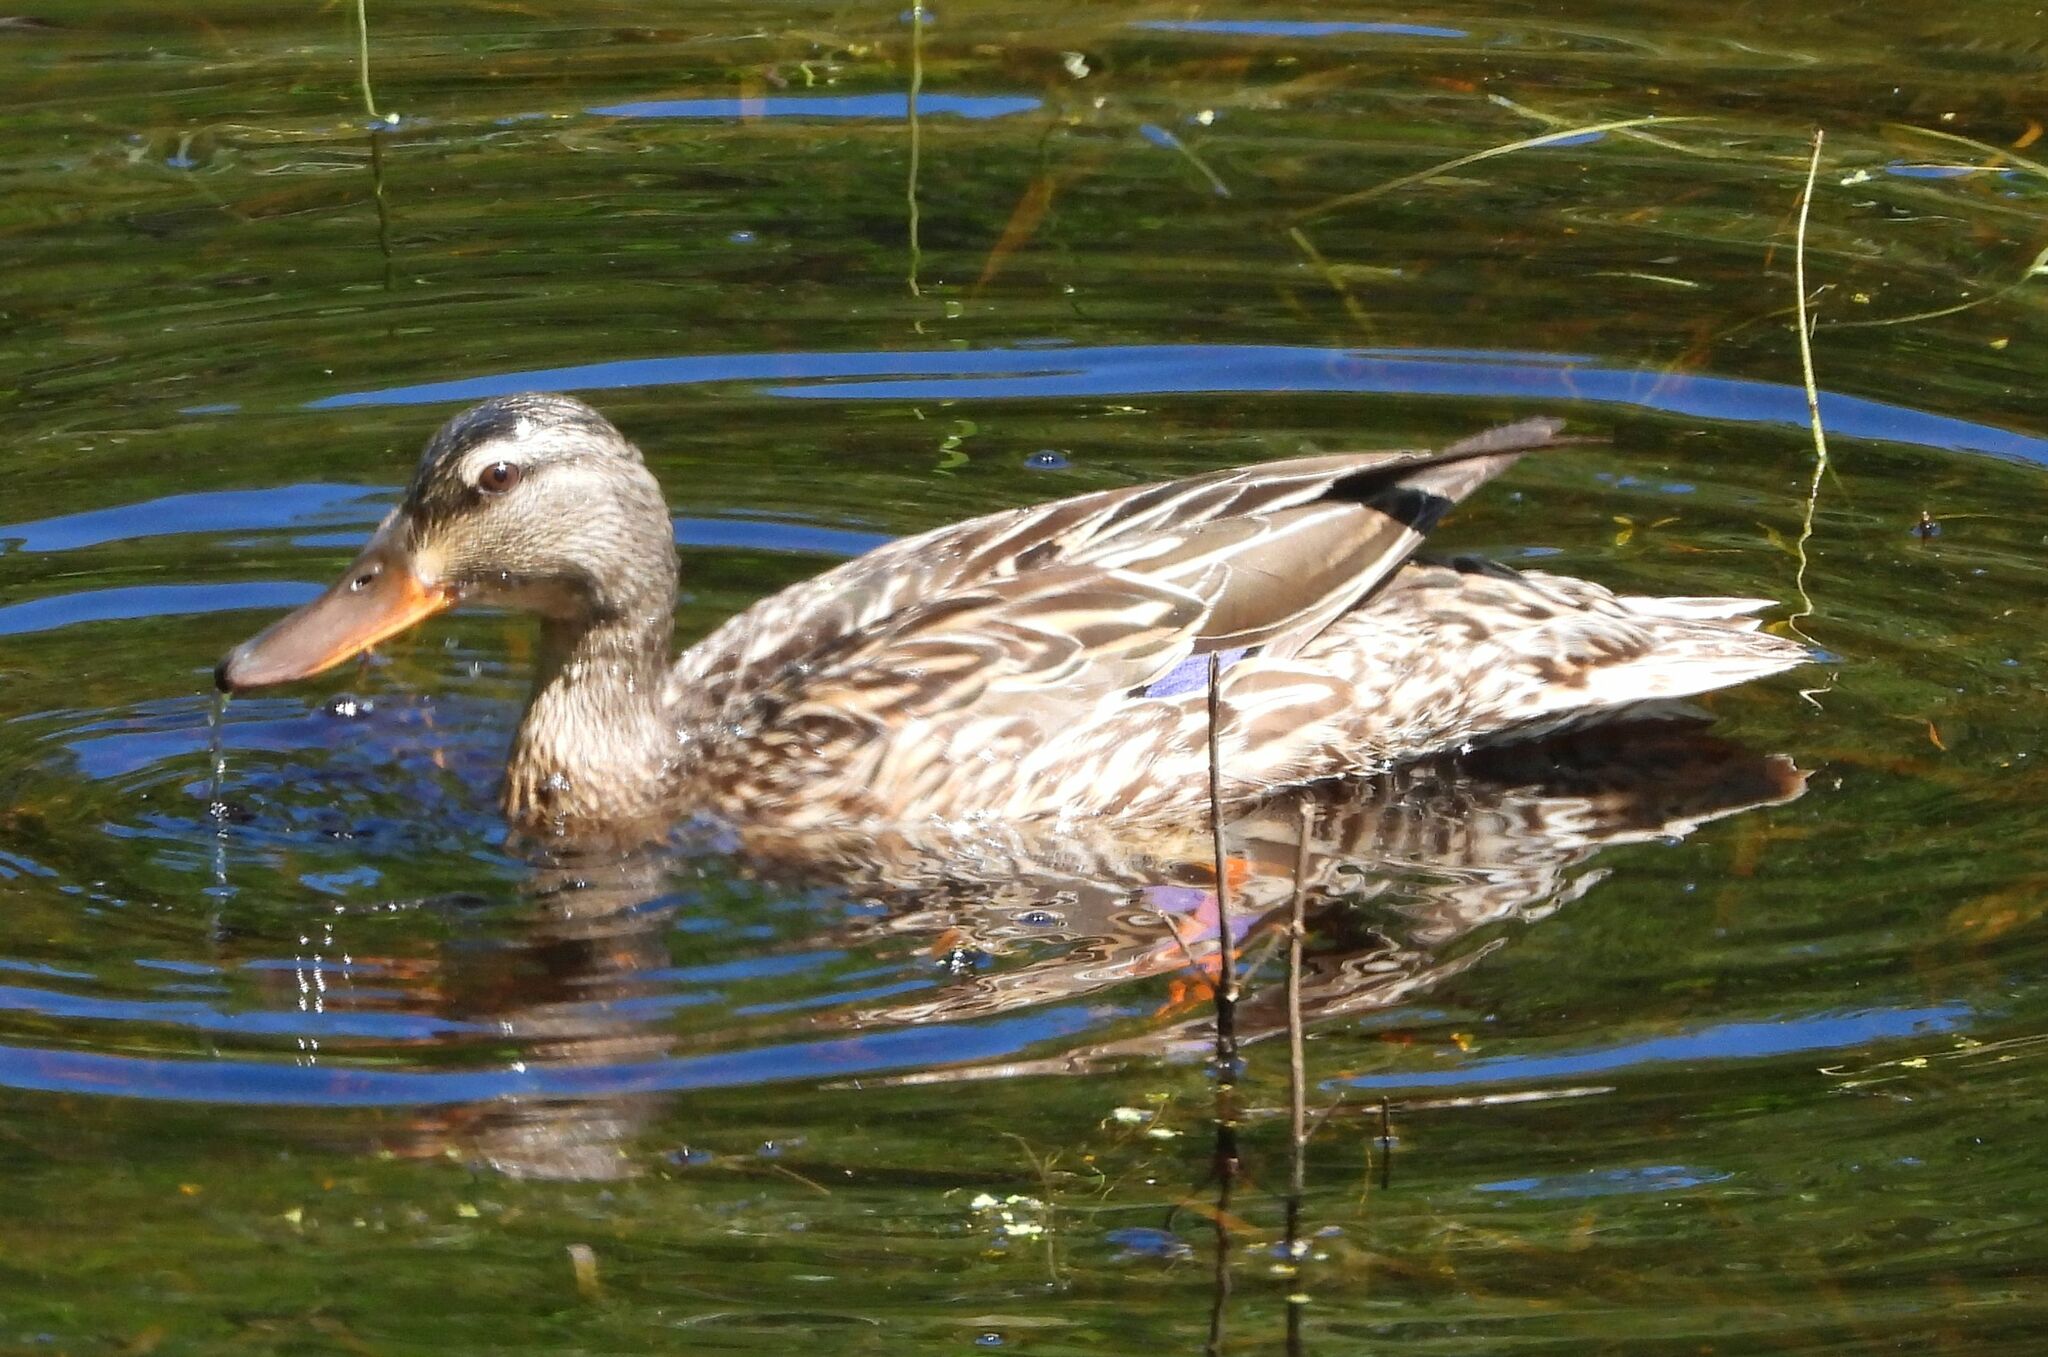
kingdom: Animalia
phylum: Chordata
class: Aves
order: Anseriformes
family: Anatidae
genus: Anas
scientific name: Anas platyrhynchos
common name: Mallard
